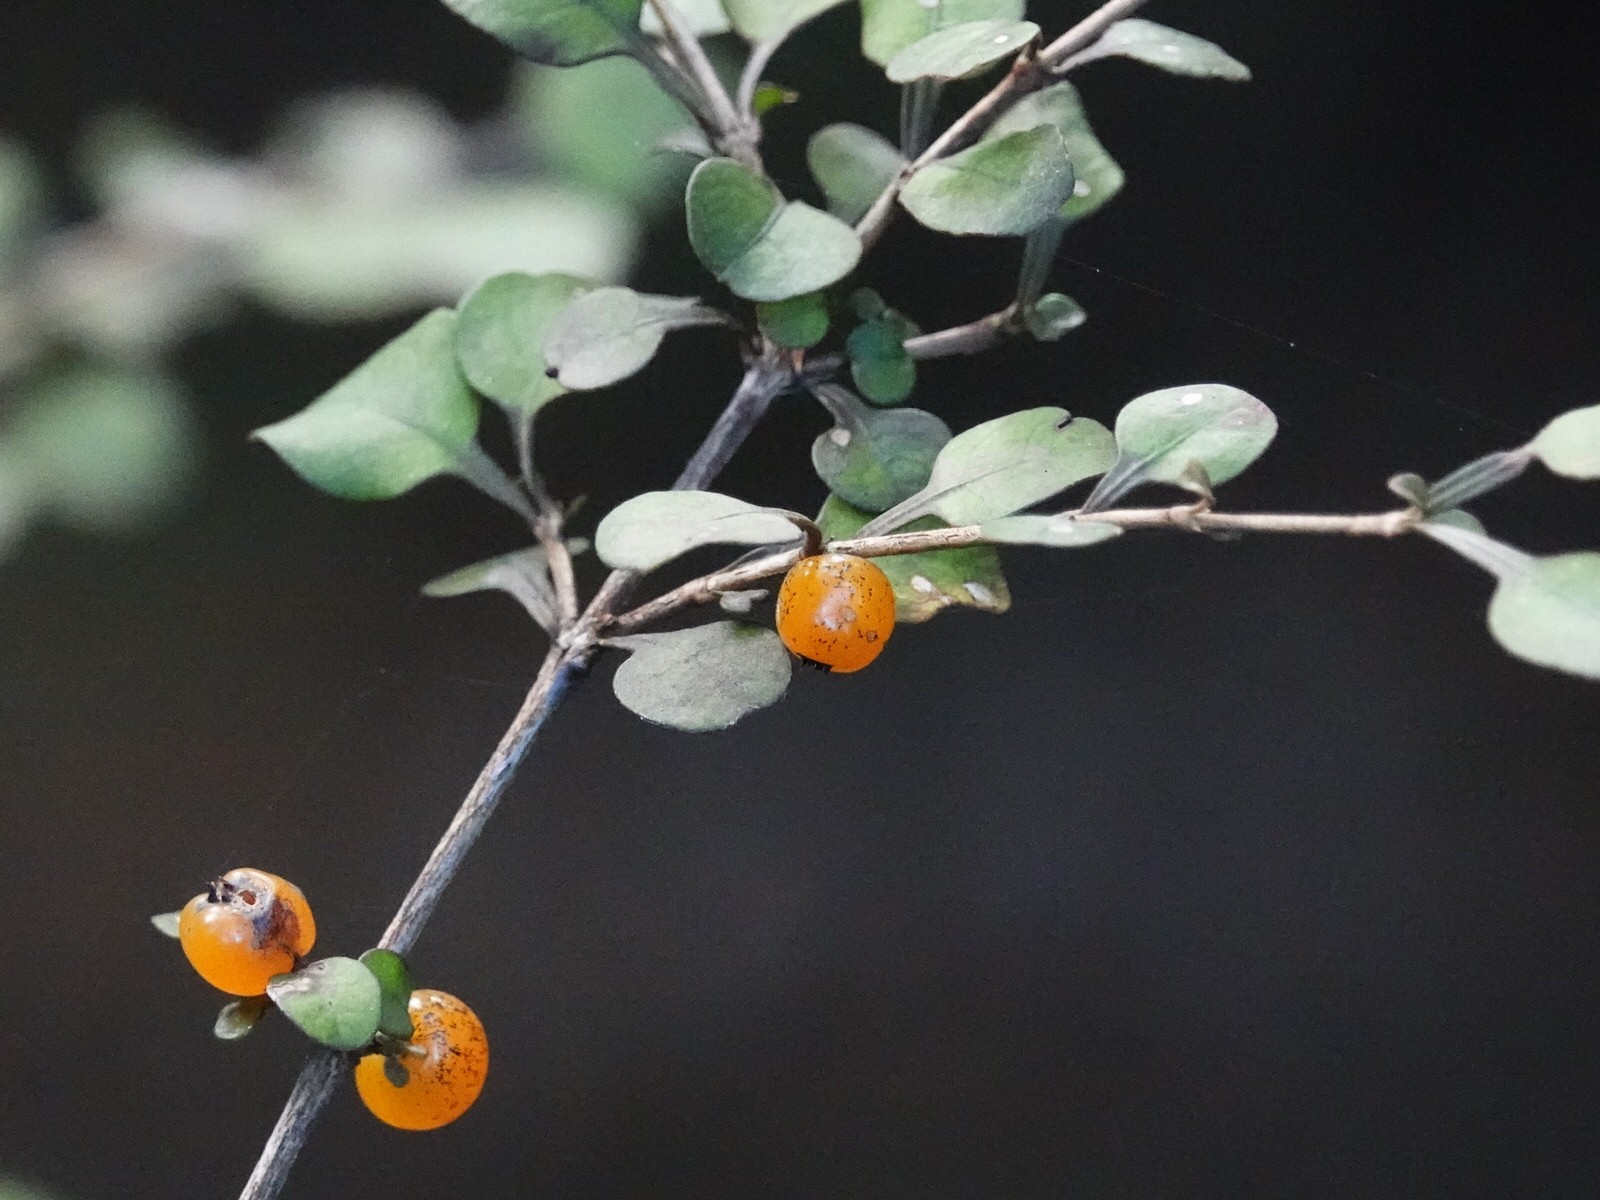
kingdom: Plantae
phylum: Tracheophyta
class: Magnoliopsida
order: Gentianales
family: Rubiaceae
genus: Coprosma
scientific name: Coprosma spathulata
